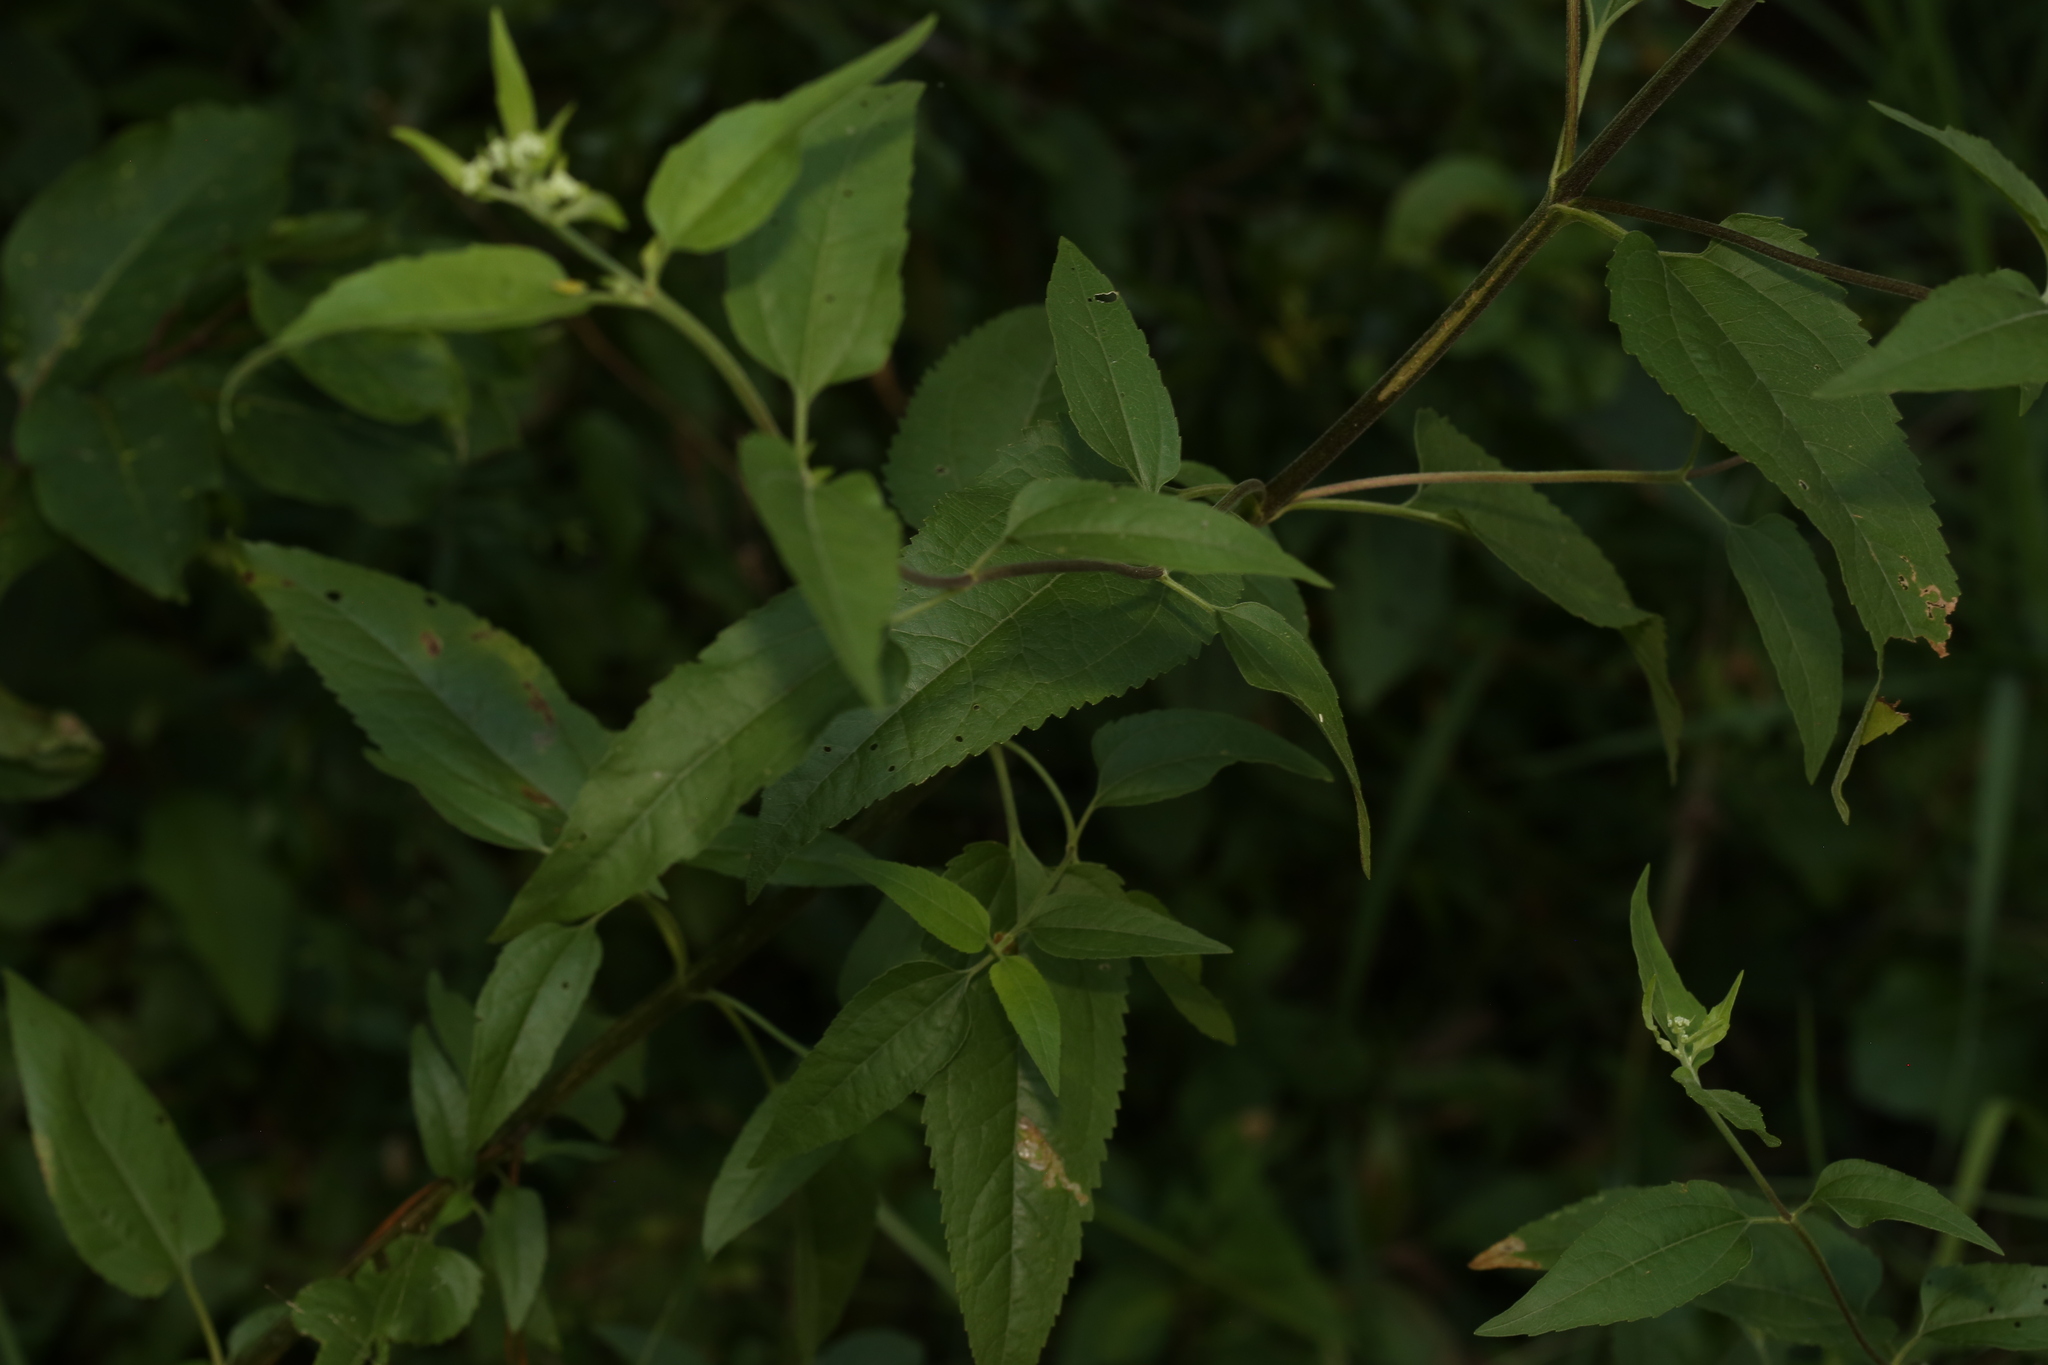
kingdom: Plantae
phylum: Tracheophyta
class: Magnoliopsida
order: Asterales
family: Asteraceae
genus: Eupatorium
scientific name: Eupatorium serotinum
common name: Late boneset
